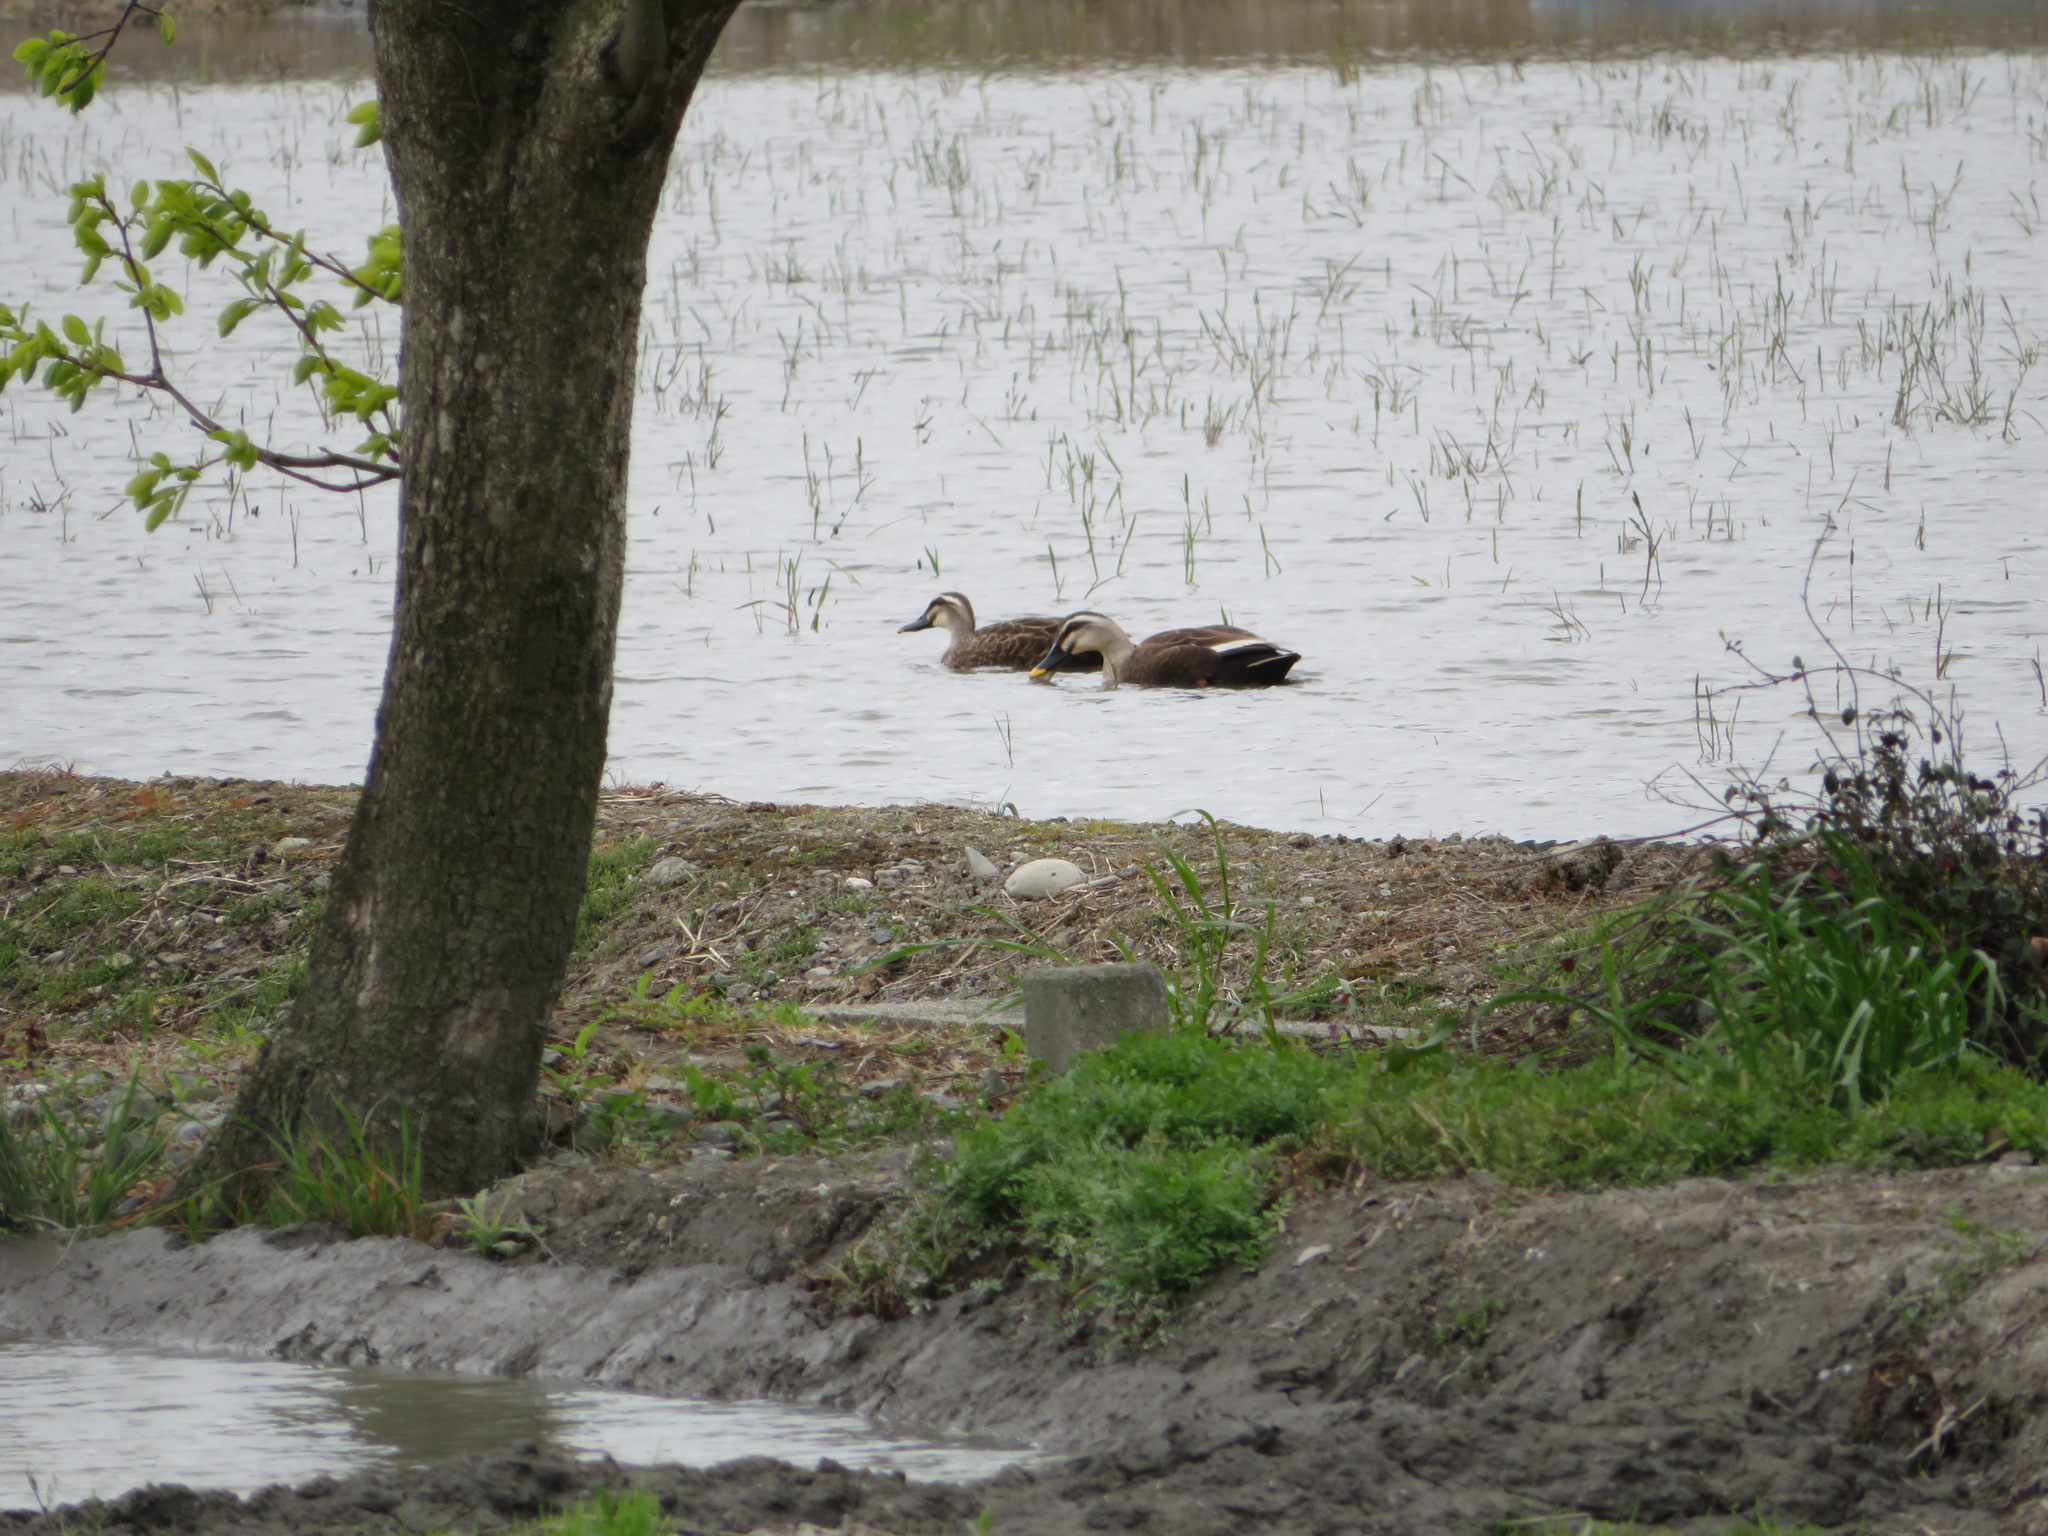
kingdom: Animalia
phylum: Chordata
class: Aves
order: Anseriformes
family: Anatidae
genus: Anas
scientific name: Anas zonorhyncha
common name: Eastern spot-billed duck
